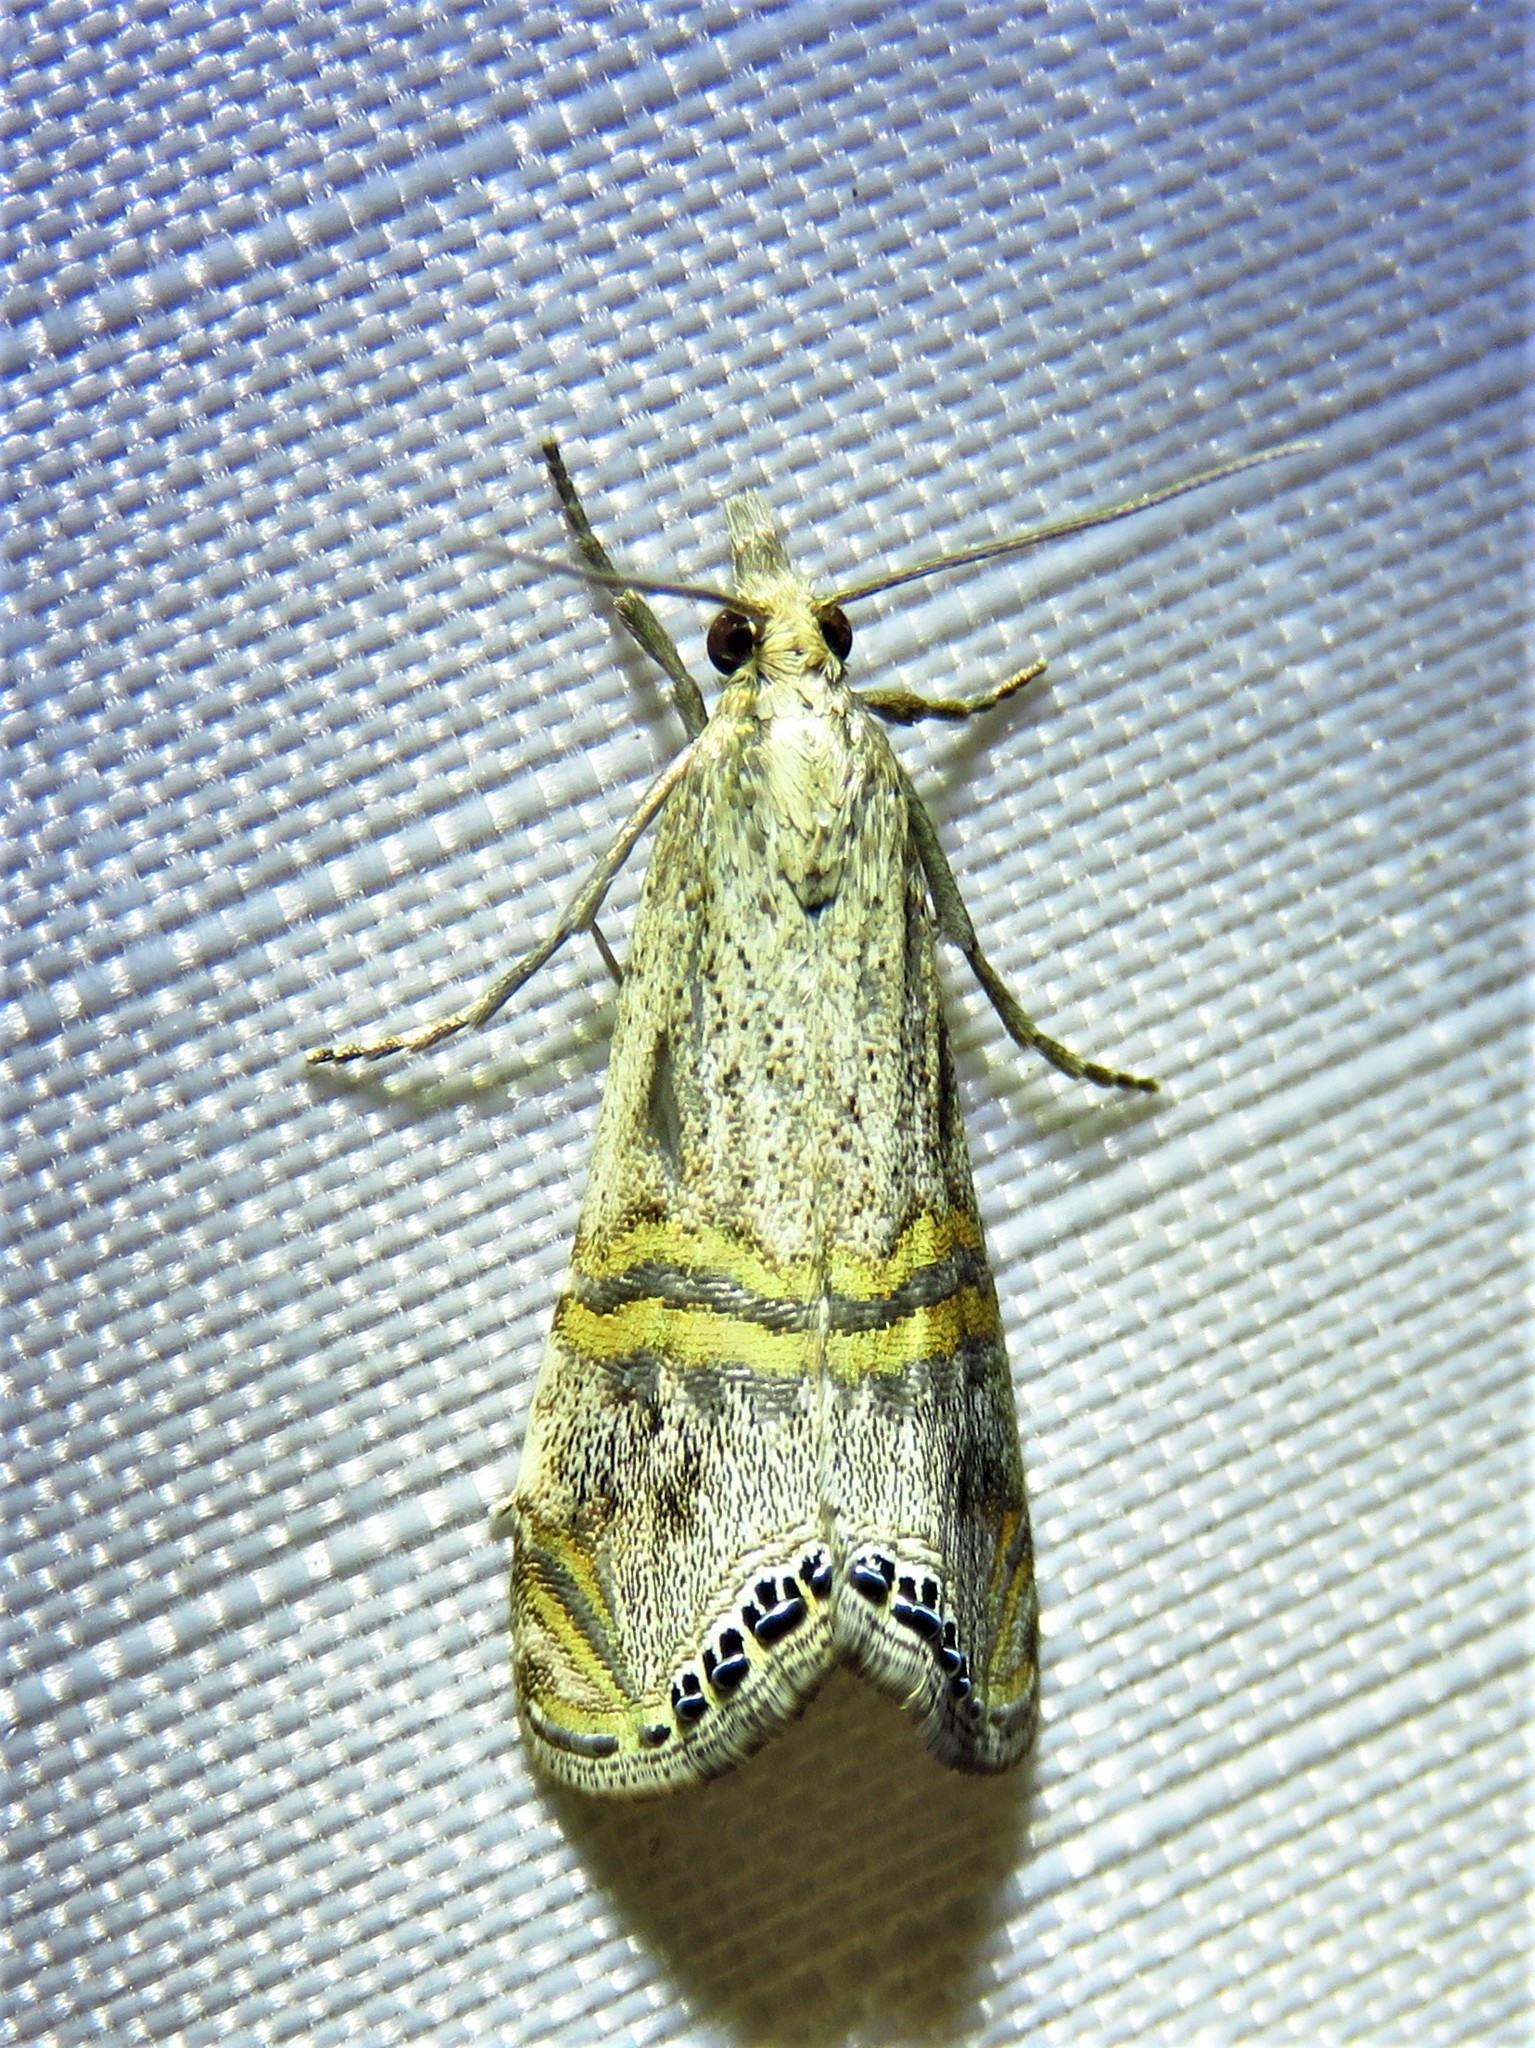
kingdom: Animalia
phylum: Arthropoda
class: Insecta
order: Lepidoptera
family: Crambidae
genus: Euchromius
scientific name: Euchromius ocellea
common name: Necklace veneer moth
